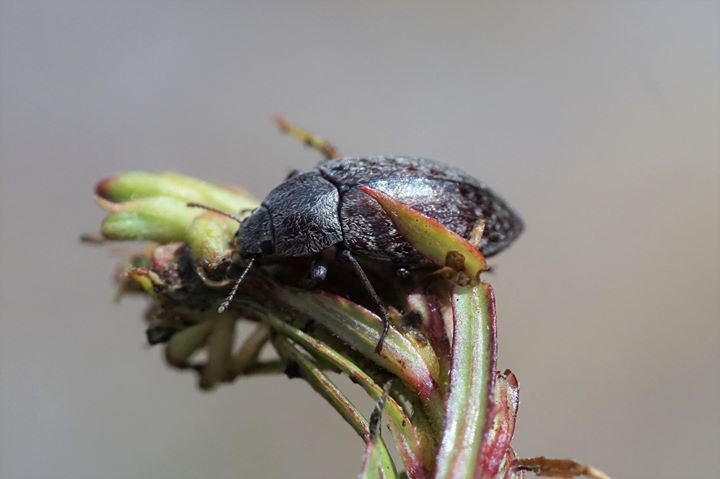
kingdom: Animalia
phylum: Arthropoda
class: Insecta
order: Coleoptera
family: Tenebrionidae
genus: Epitragodes
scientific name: Epitragodes tomentosus
